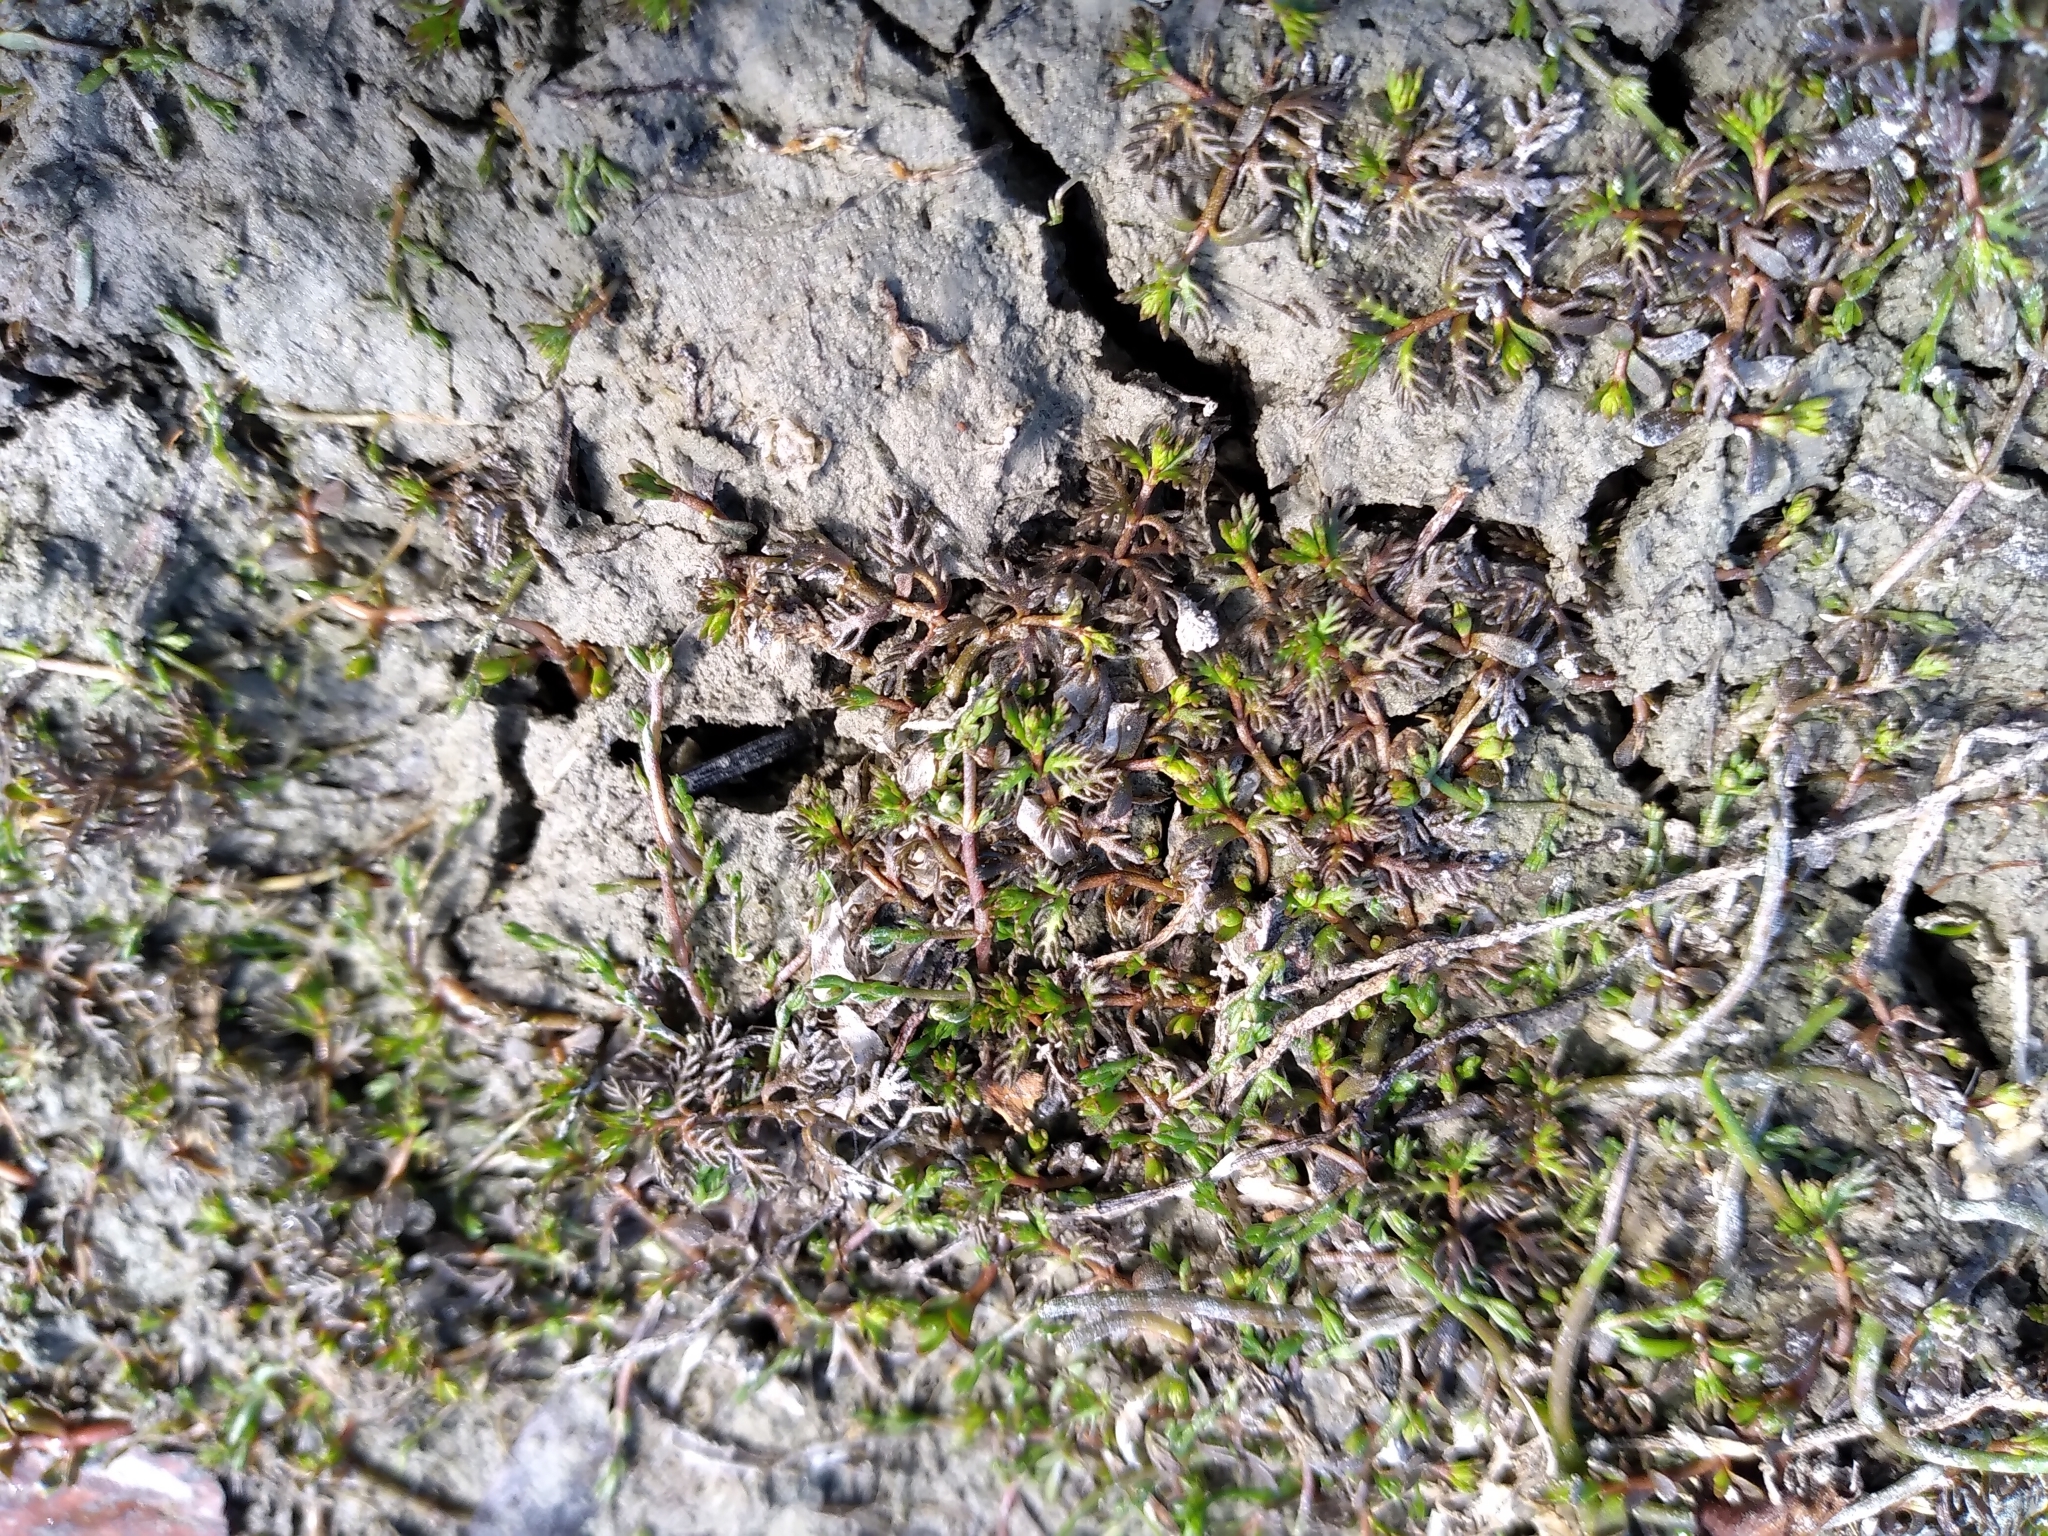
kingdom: Plantae
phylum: Tracheophyta
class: Magnoliopsida
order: Saxifragales
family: Haloragaceae
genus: Myriophyllum
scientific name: Myriophyllum propinquum
